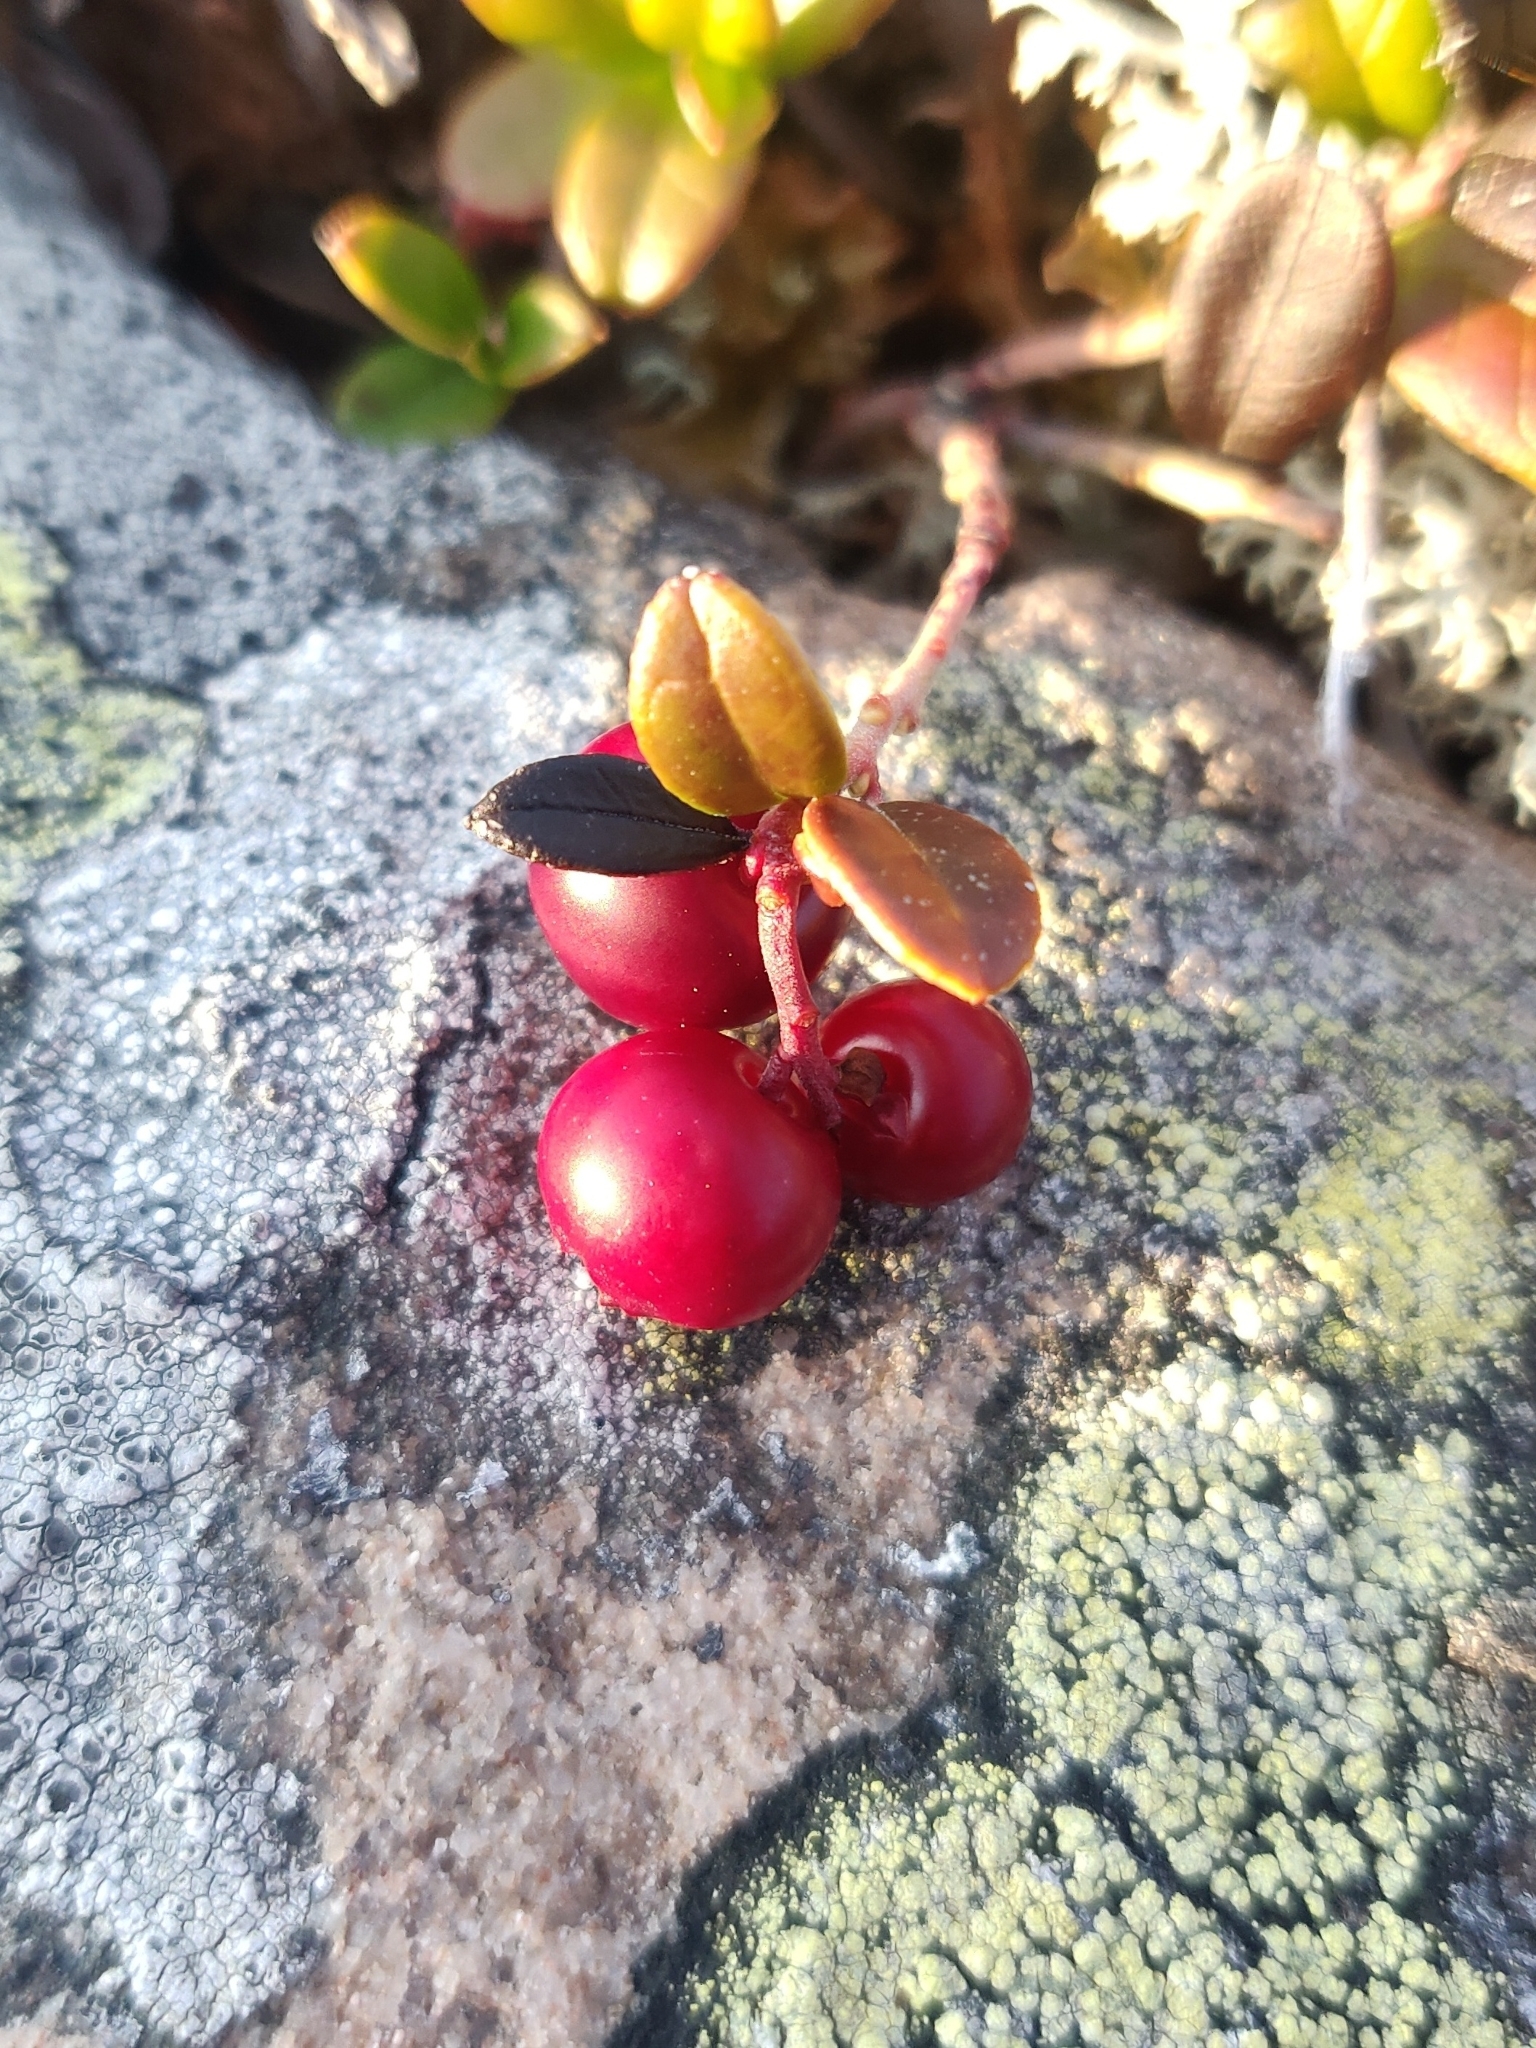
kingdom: Plantae
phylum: Tracheophyta
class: Magnoliopsida
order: Ericales
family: Ericaceae
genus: Vaccinium
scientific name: Vaccinium vitis-idaea
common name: Cowberry
